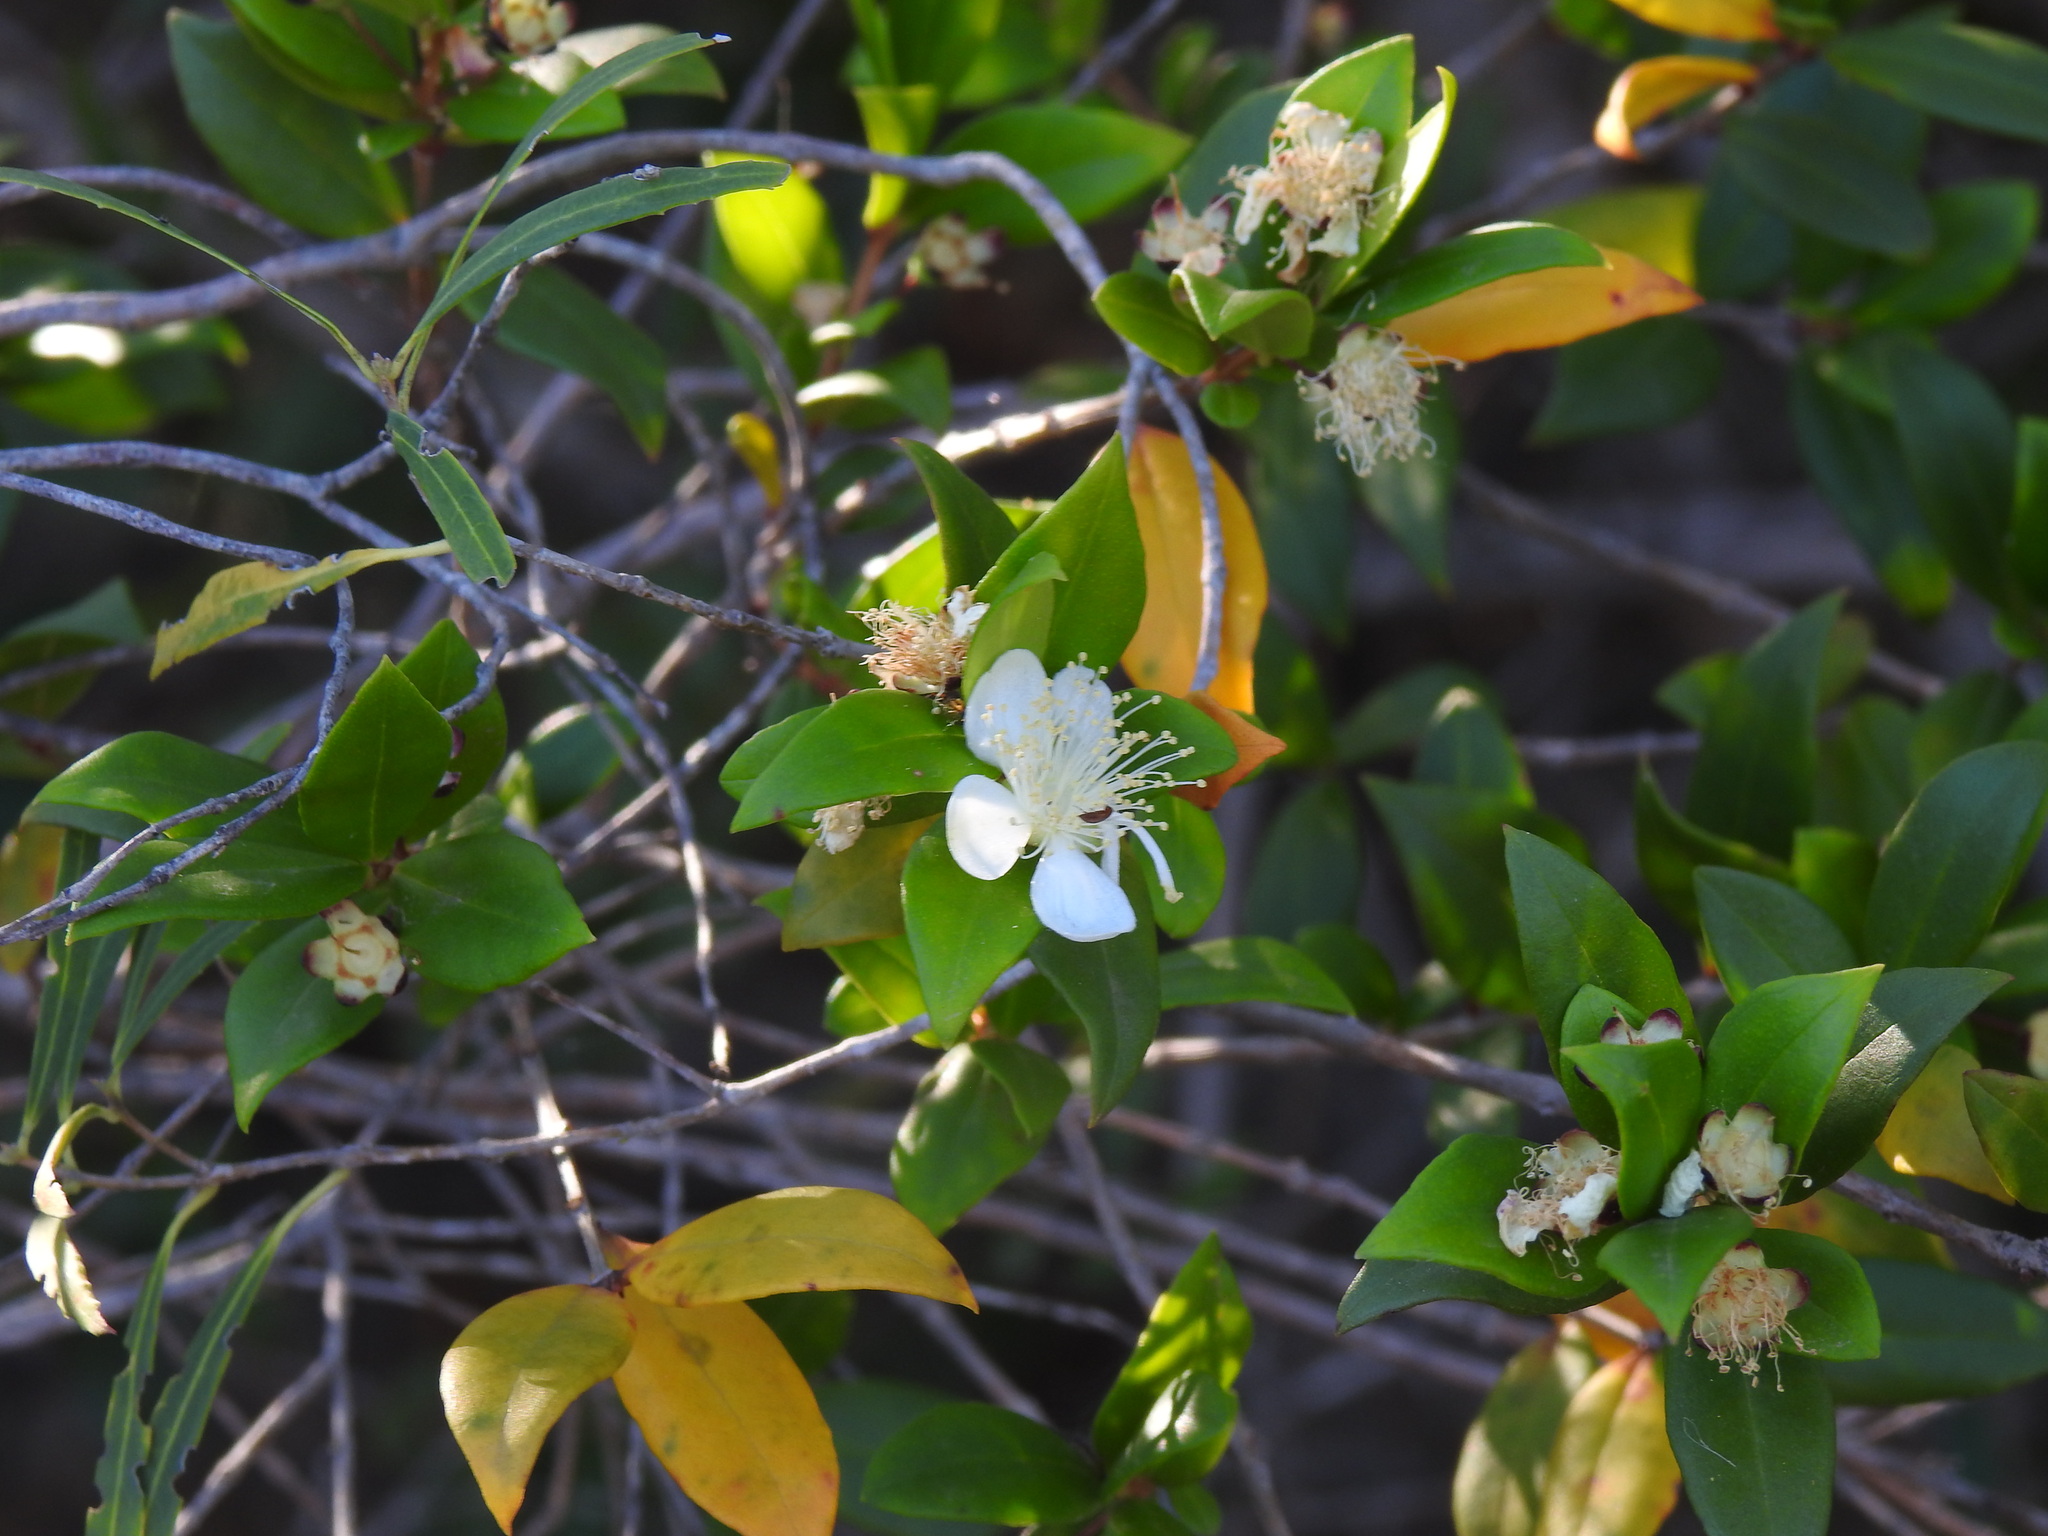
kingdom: Plantae
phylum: Tracheophyta
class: Magnoliopsida
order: Myrtales
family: Myrtaceae
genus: Myrtus
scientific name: Myrtus communis
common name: Myrtle
